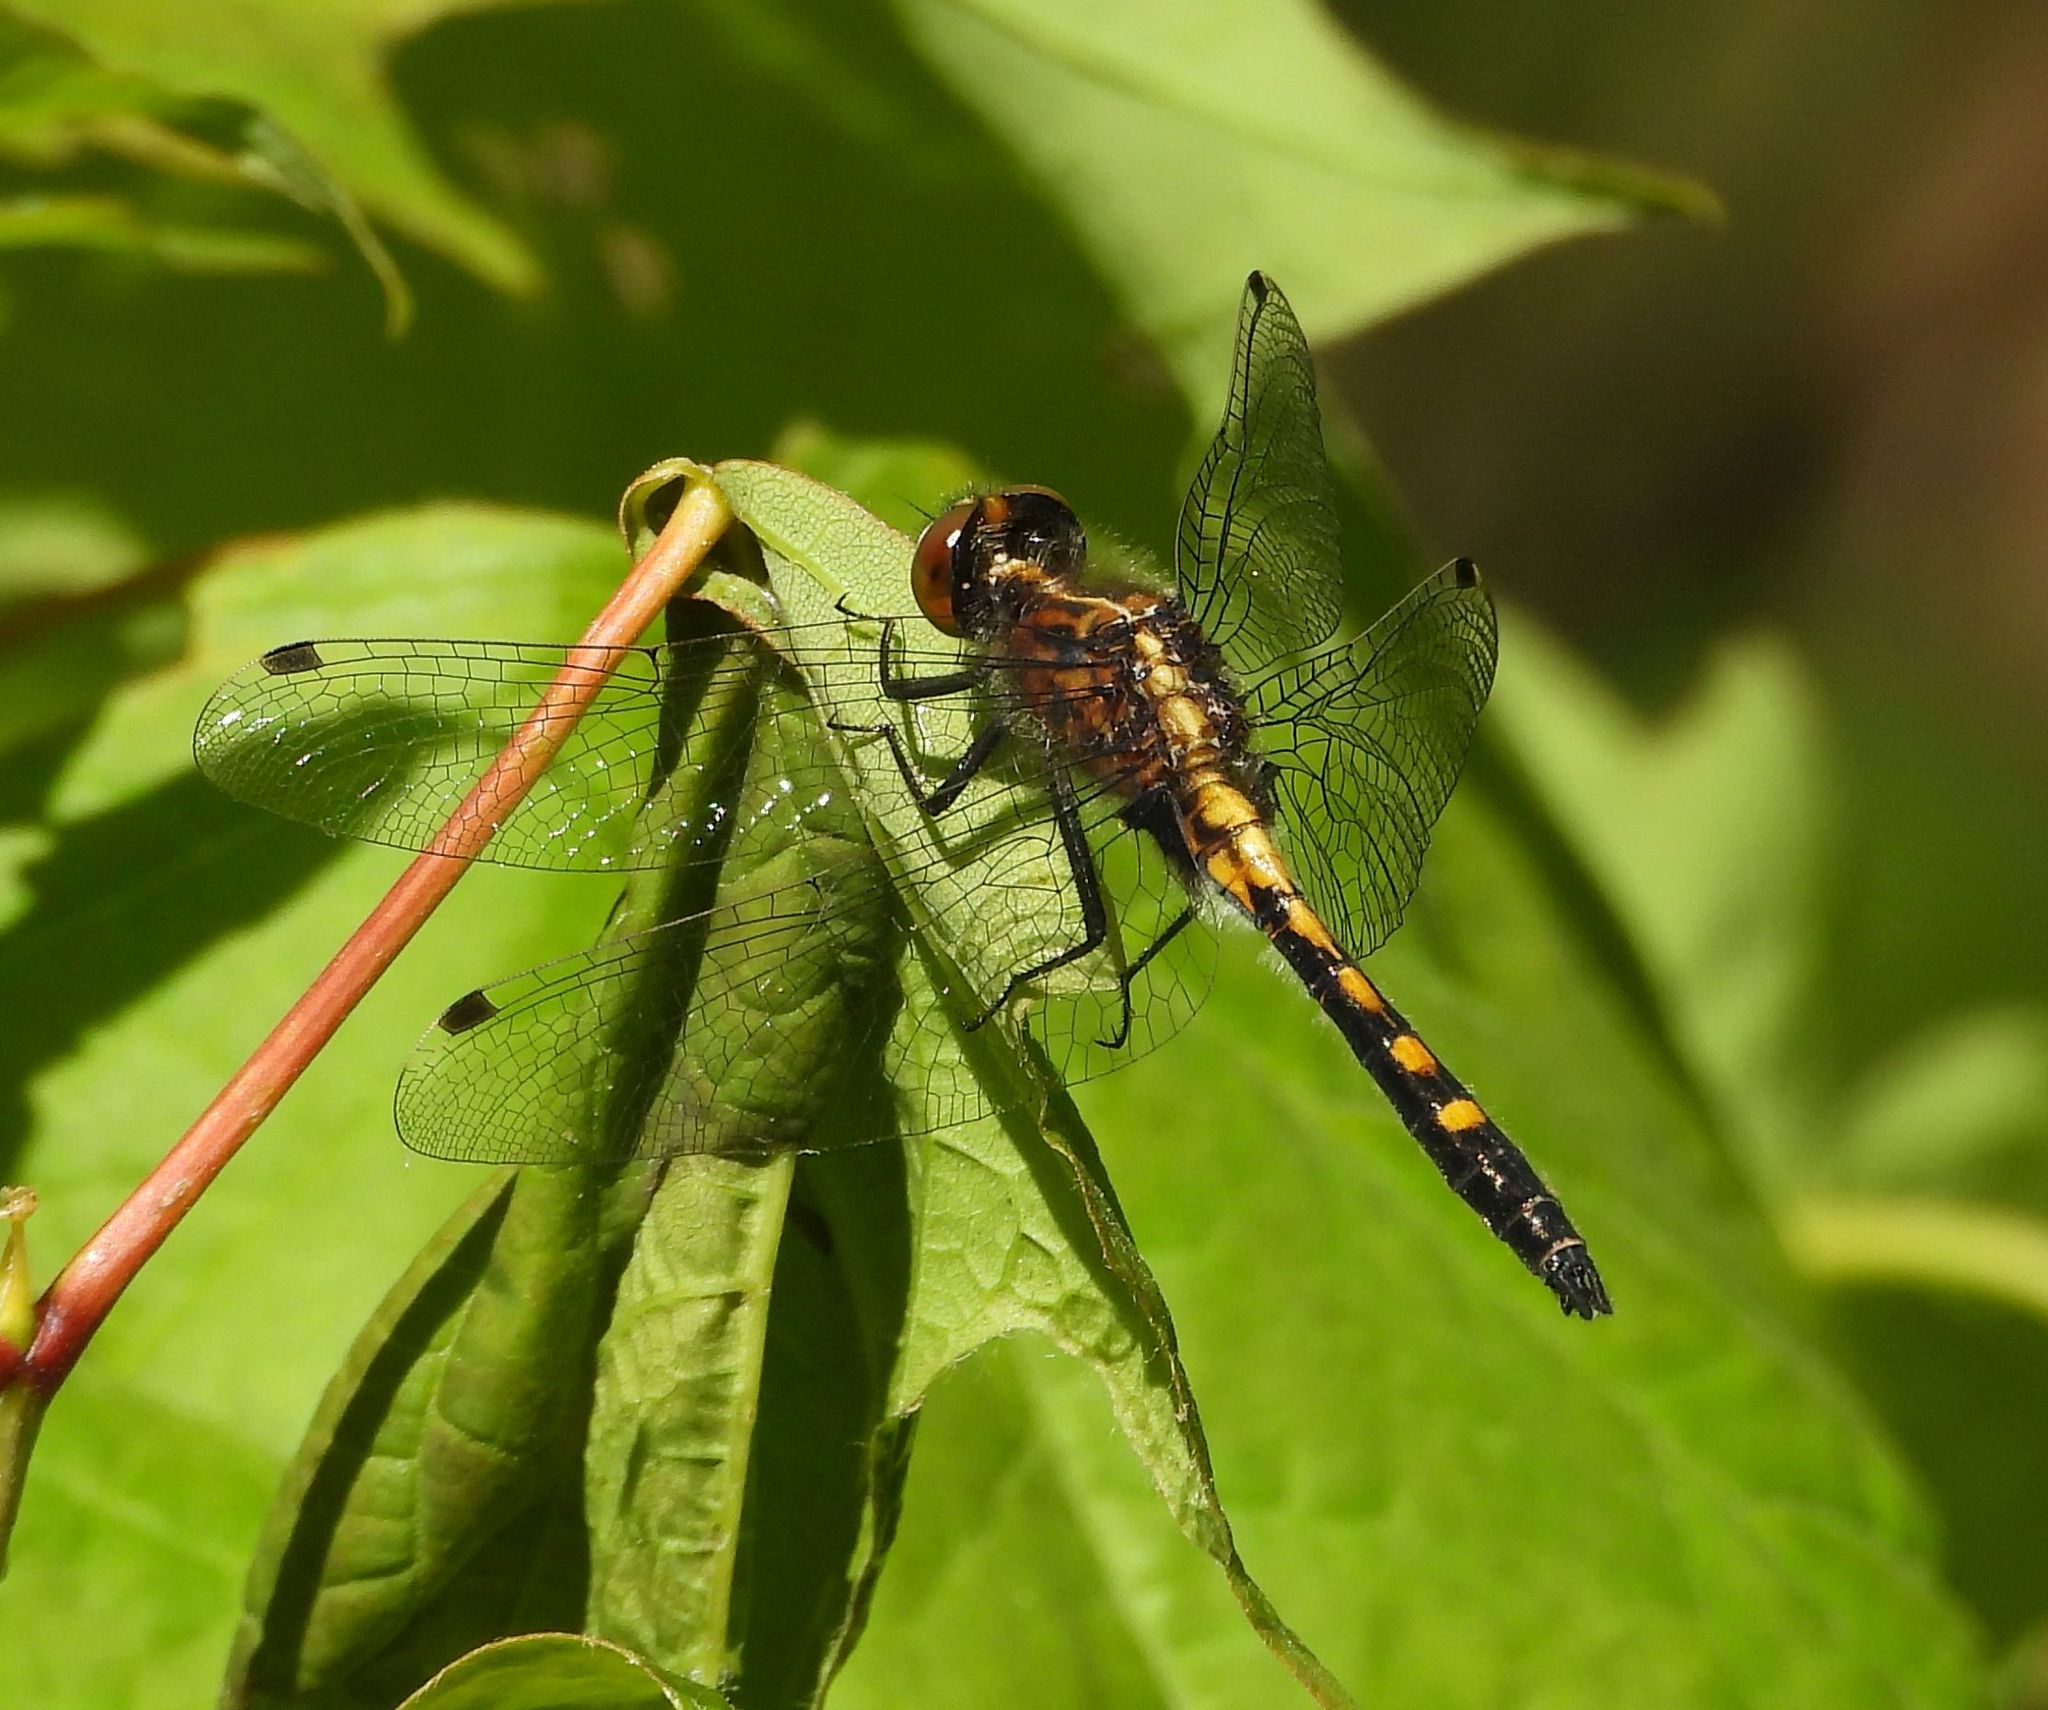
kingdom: Animalia
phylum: Arthropoda
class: Insecta
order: Odonata
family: Libellulidae
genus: Leucorrhinia
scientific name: Leucorrhinia intacta
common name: Dot-tailed whiteface
